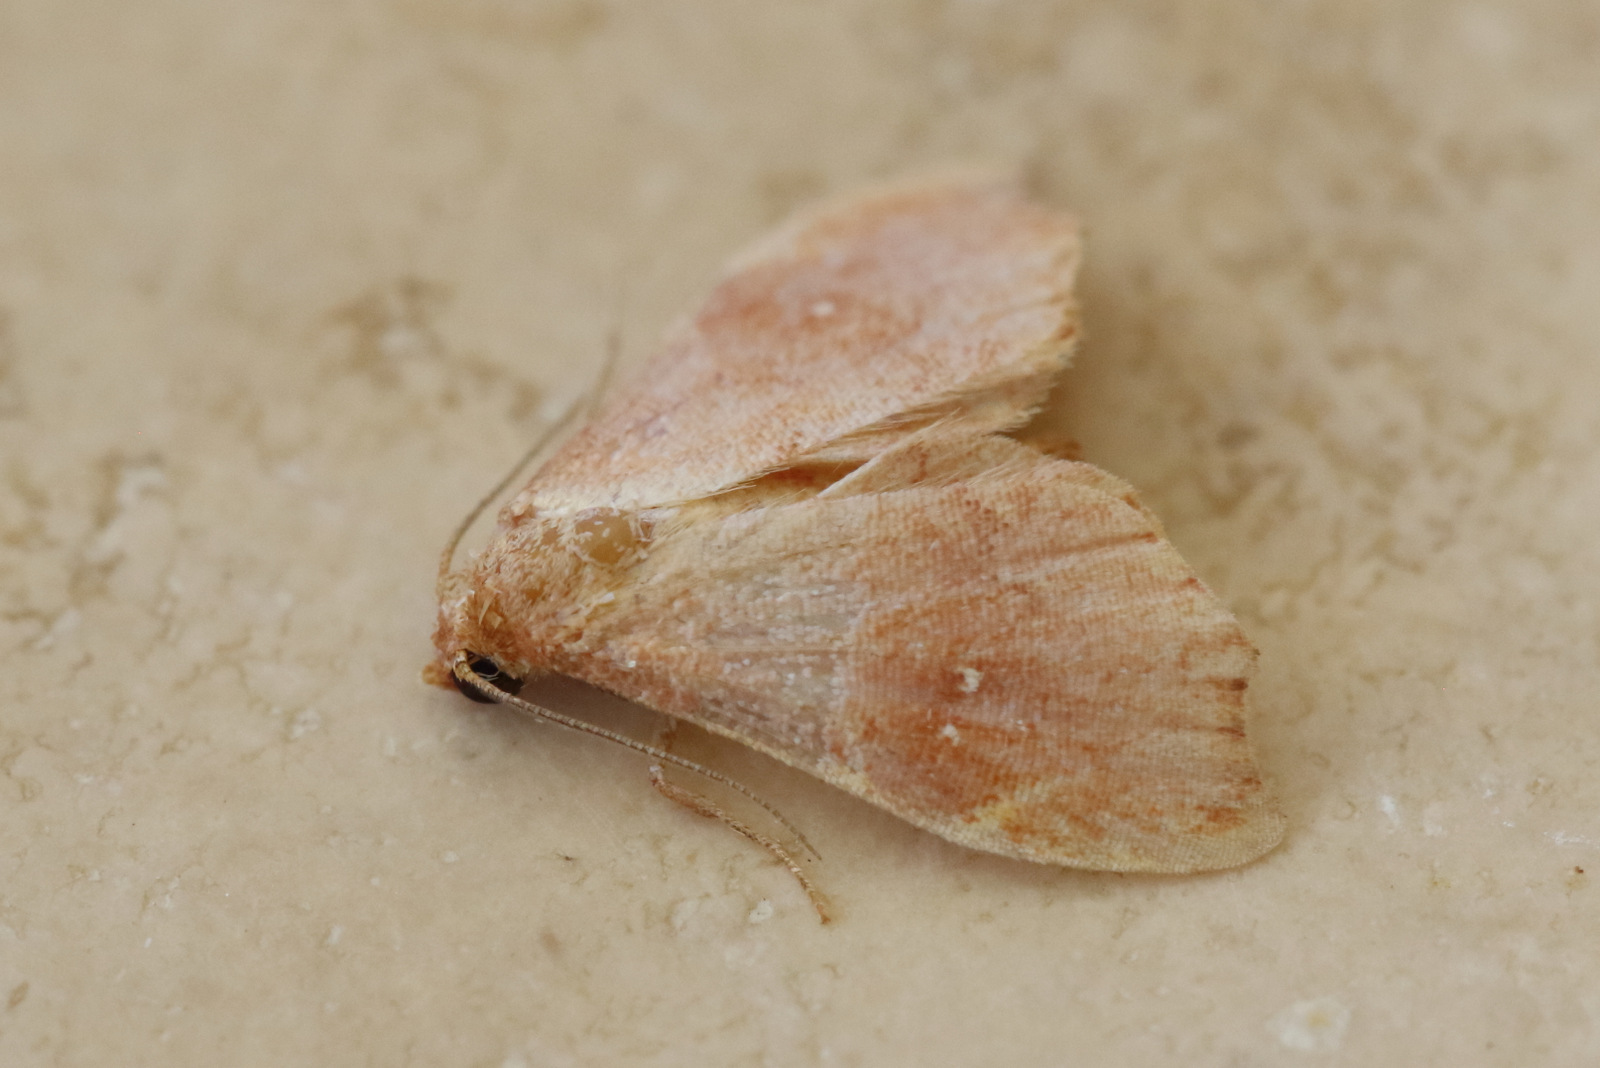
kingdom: Animalia
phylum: Arthropoda
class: Insecta
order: Lepidoptera
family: Noctuidae
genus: Heterorta
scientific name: Heterorta plutonis
